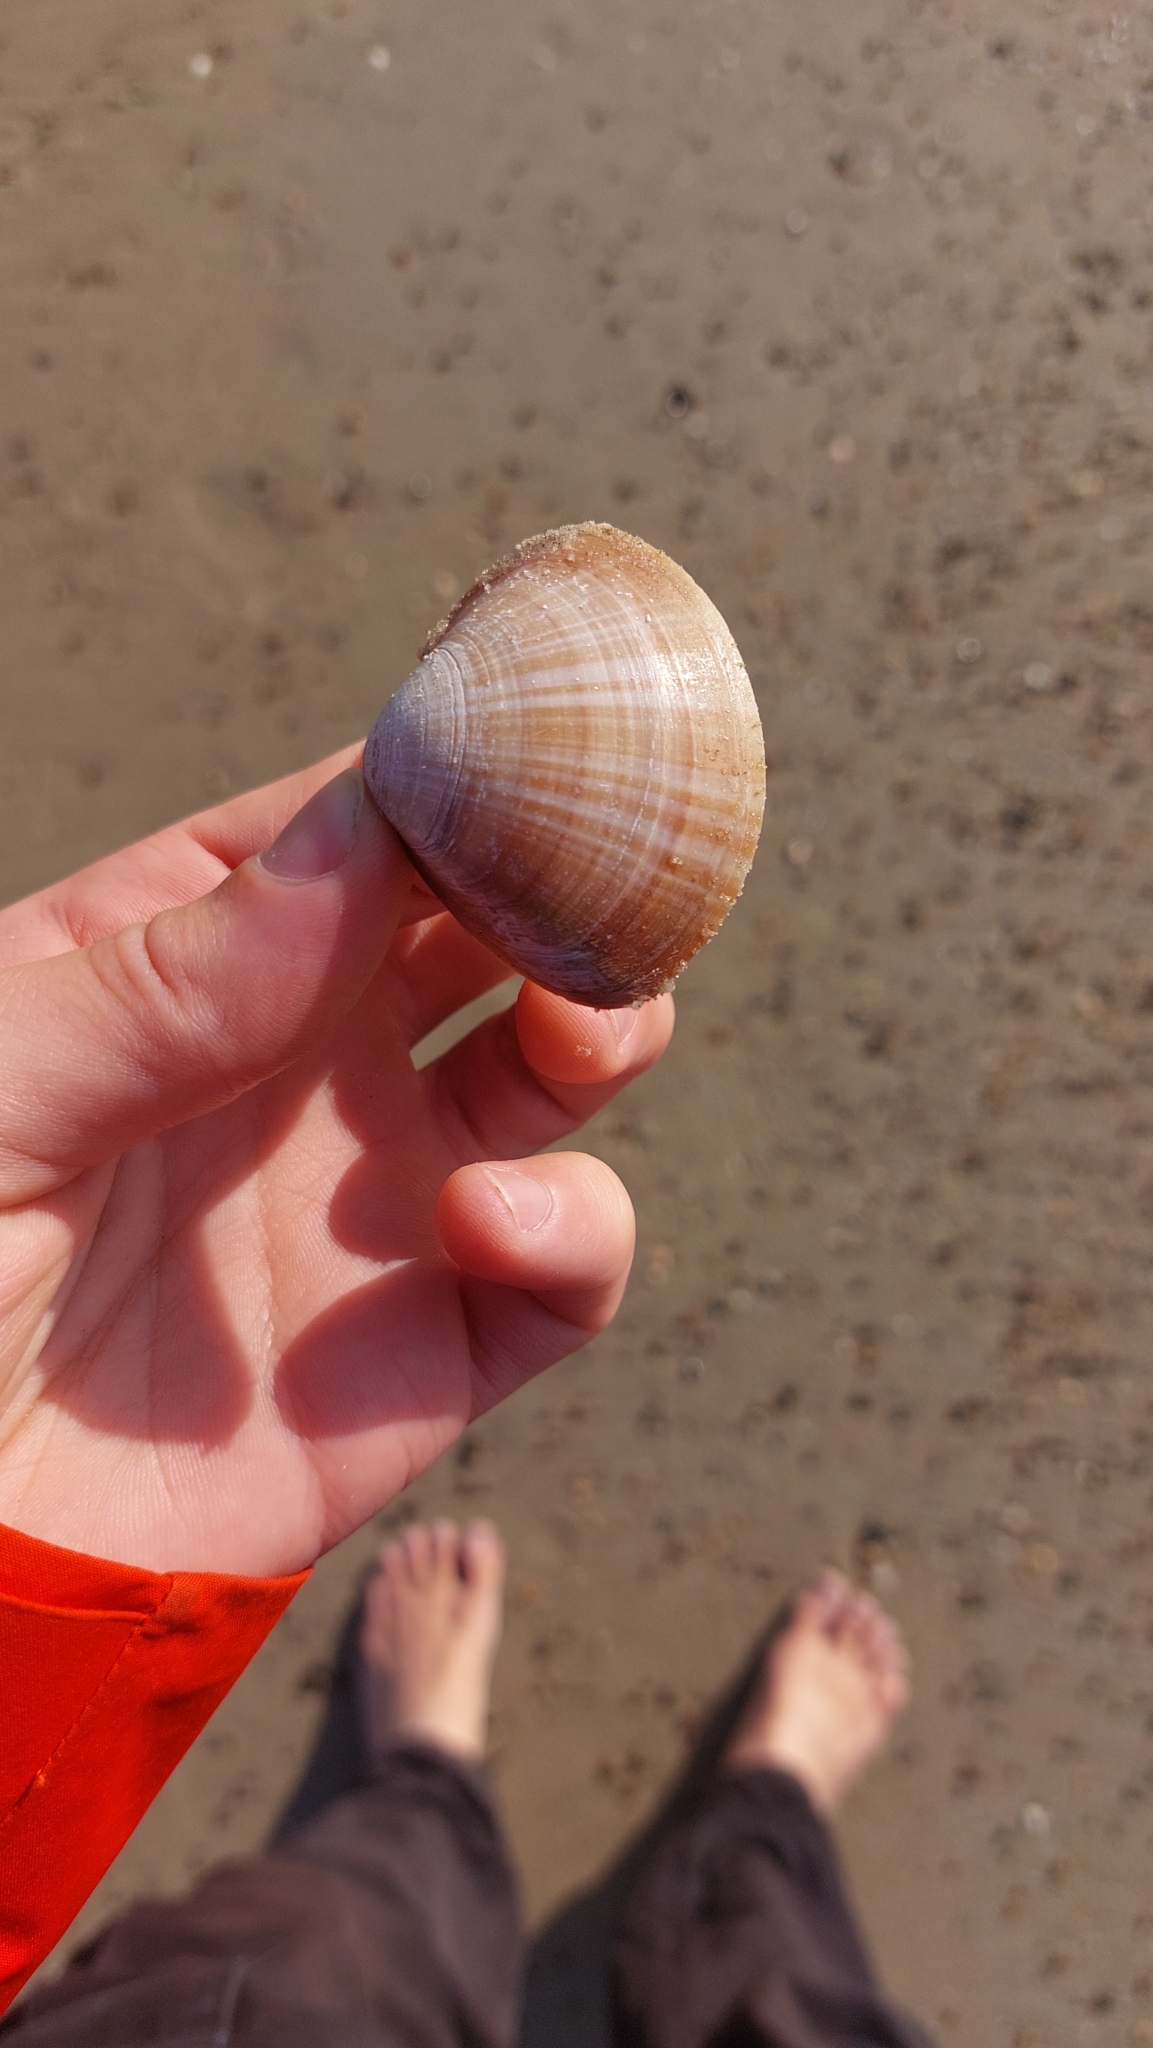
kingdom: Animalia
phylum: Mollusca
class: Bivalvia
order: Venerida
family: Mactridae
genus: Mactra
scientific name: Mactra stultorum
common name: Rayed trough shell
